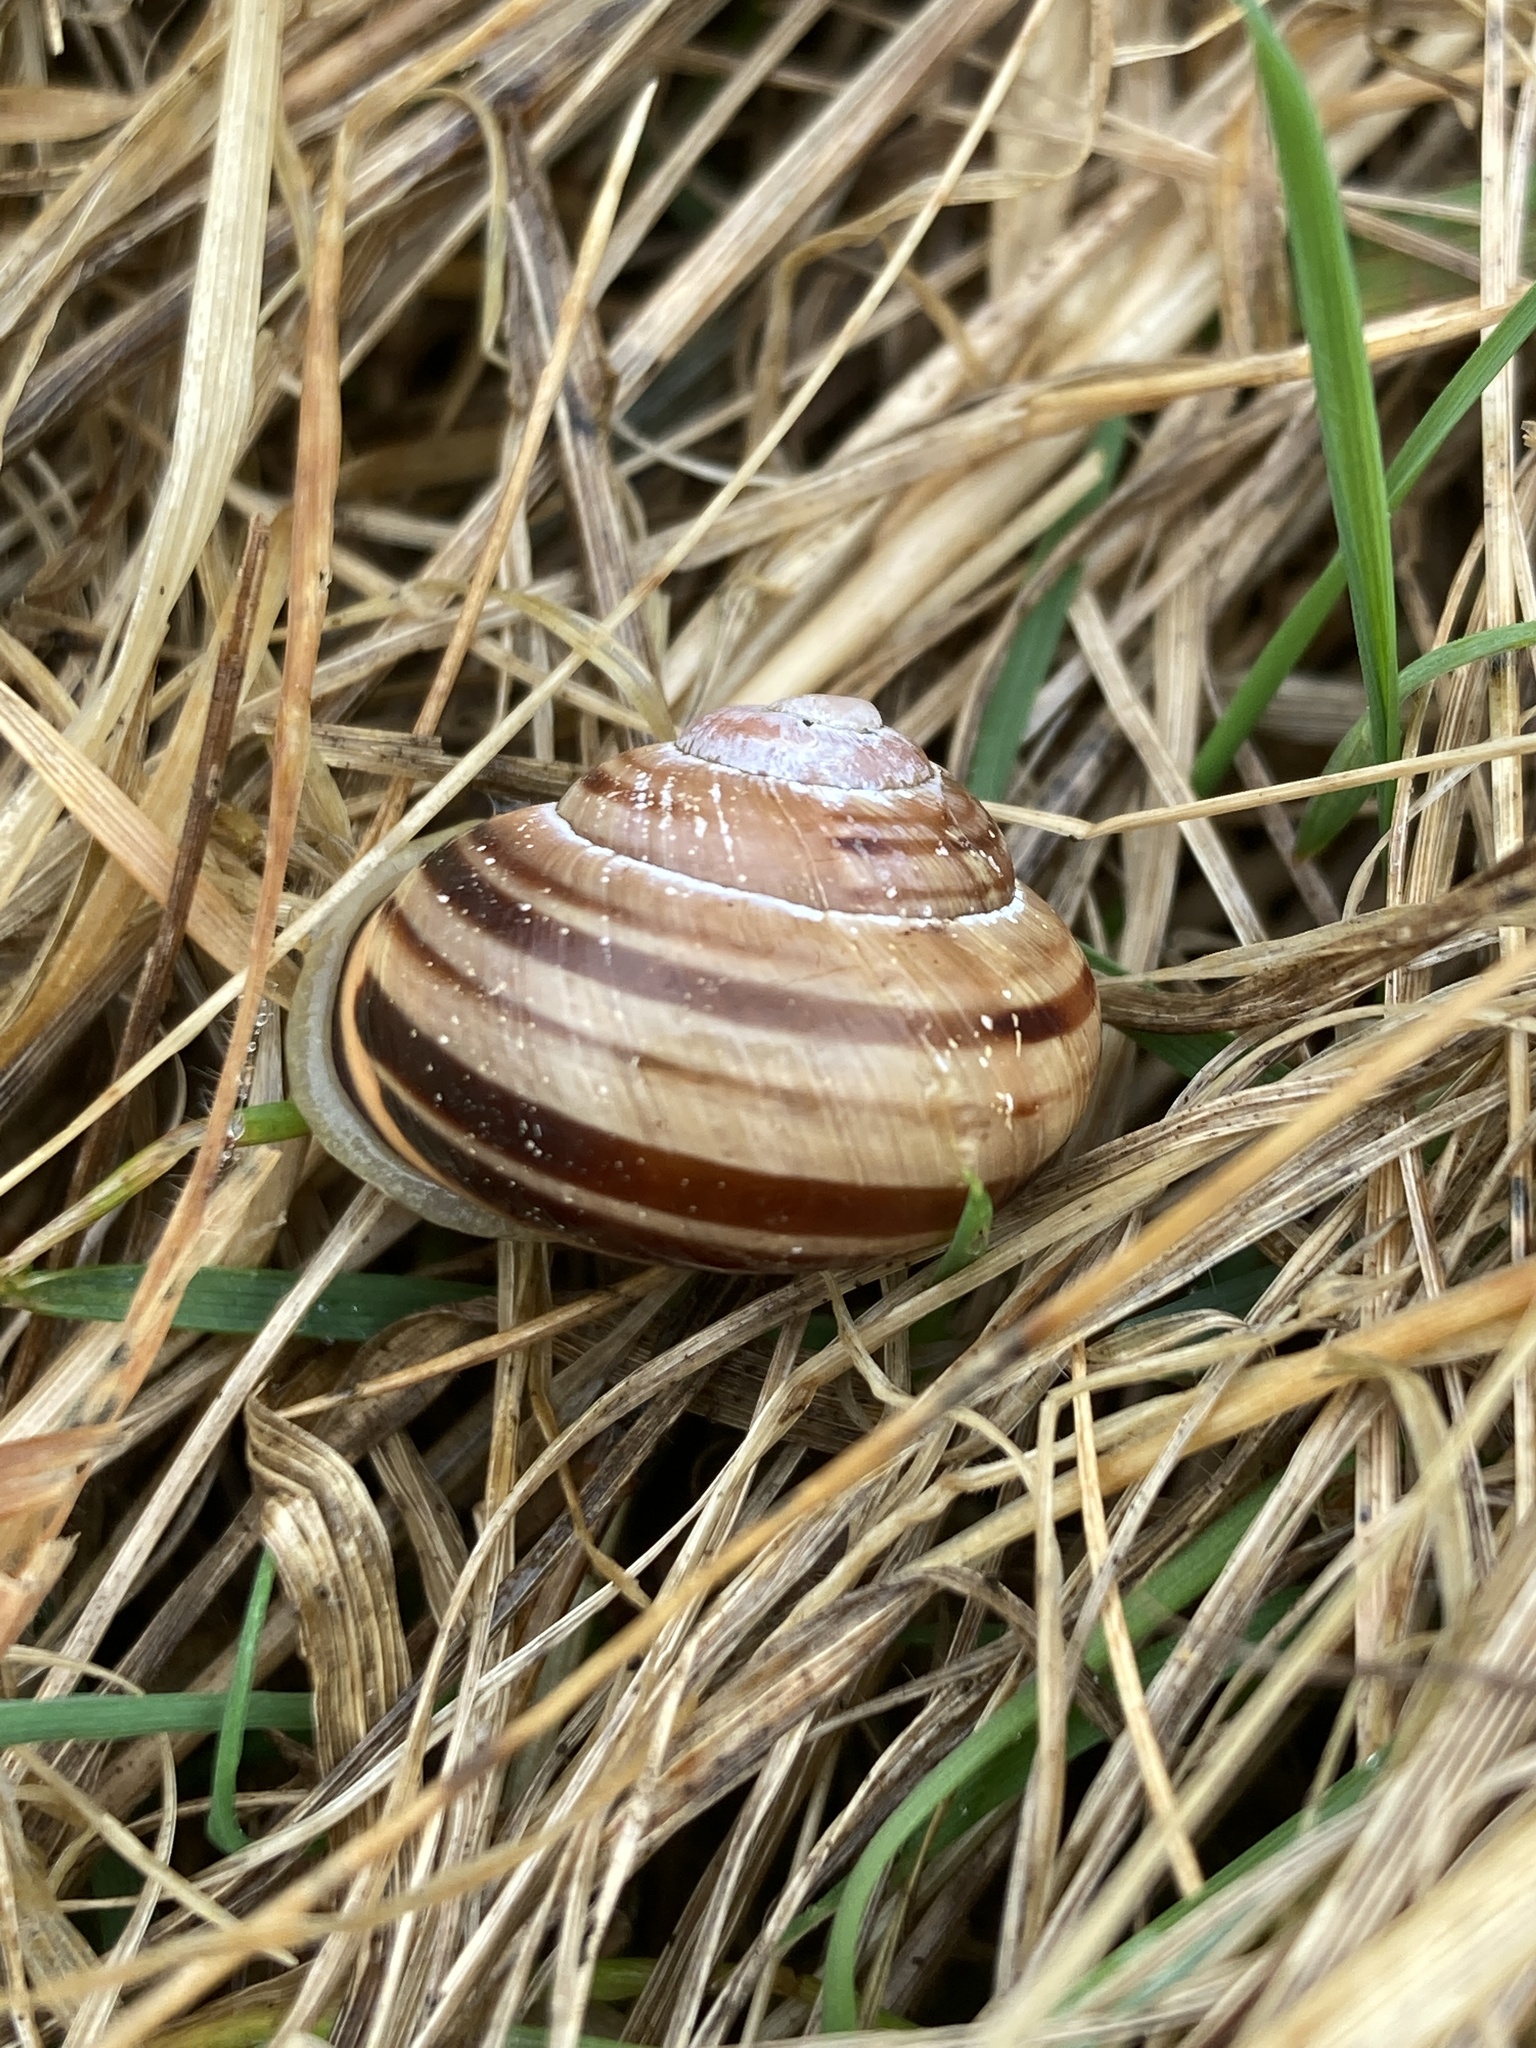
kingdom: Animalia
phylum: Mollusca
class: Gastropoda
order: Stylommatophora
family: Helicidae
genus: Cepaea
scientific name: Cepaea nemoralis
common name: Grovesnail
